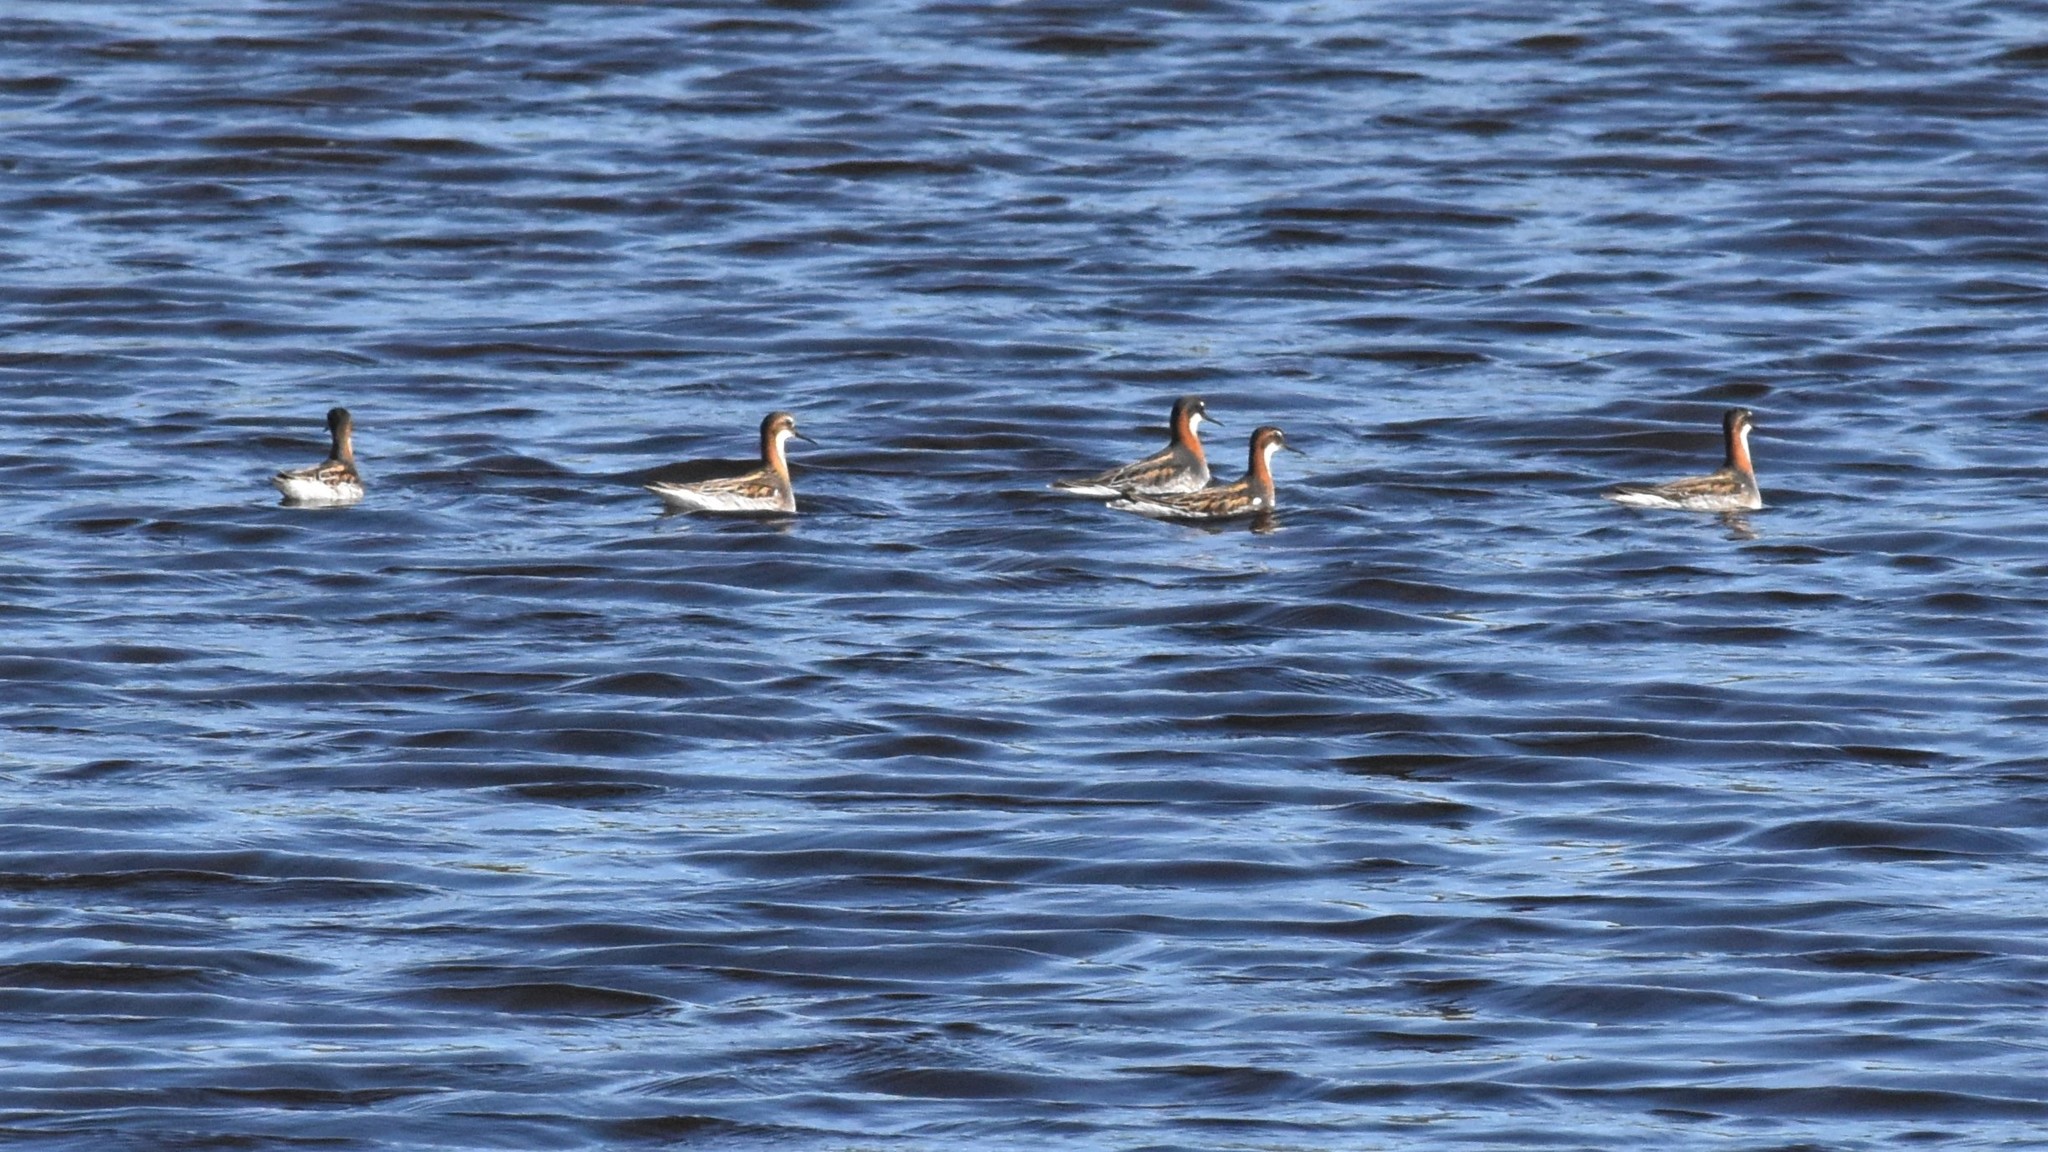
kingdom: Animalia
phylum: Chordata
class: Aves
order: Charadriiformes
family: Scolopacidae
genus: Phalaropus
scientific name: Phalaropus lobatus
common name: Red-necked phalarope
